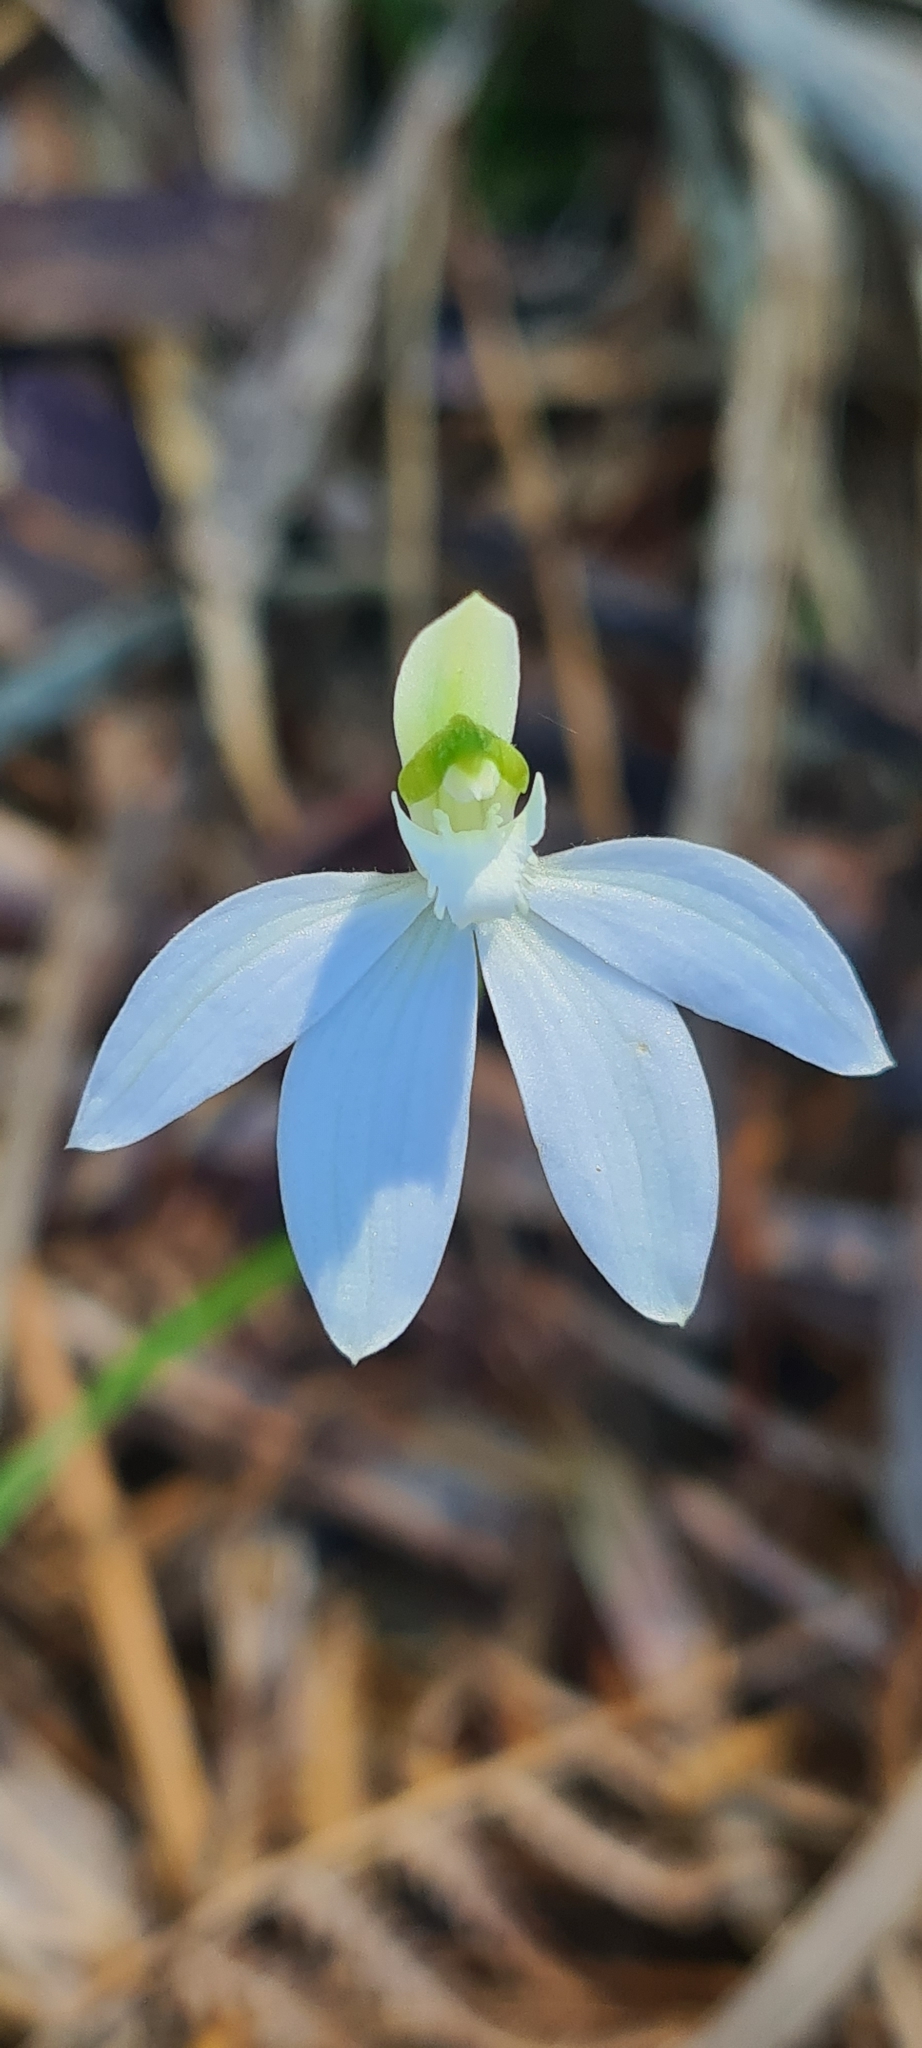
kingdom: Plantae
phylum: Tracheophyta
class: Liliopsida
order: Asparagales
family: Orchidaceae
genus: Caladenia
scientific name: Caladenia picta
